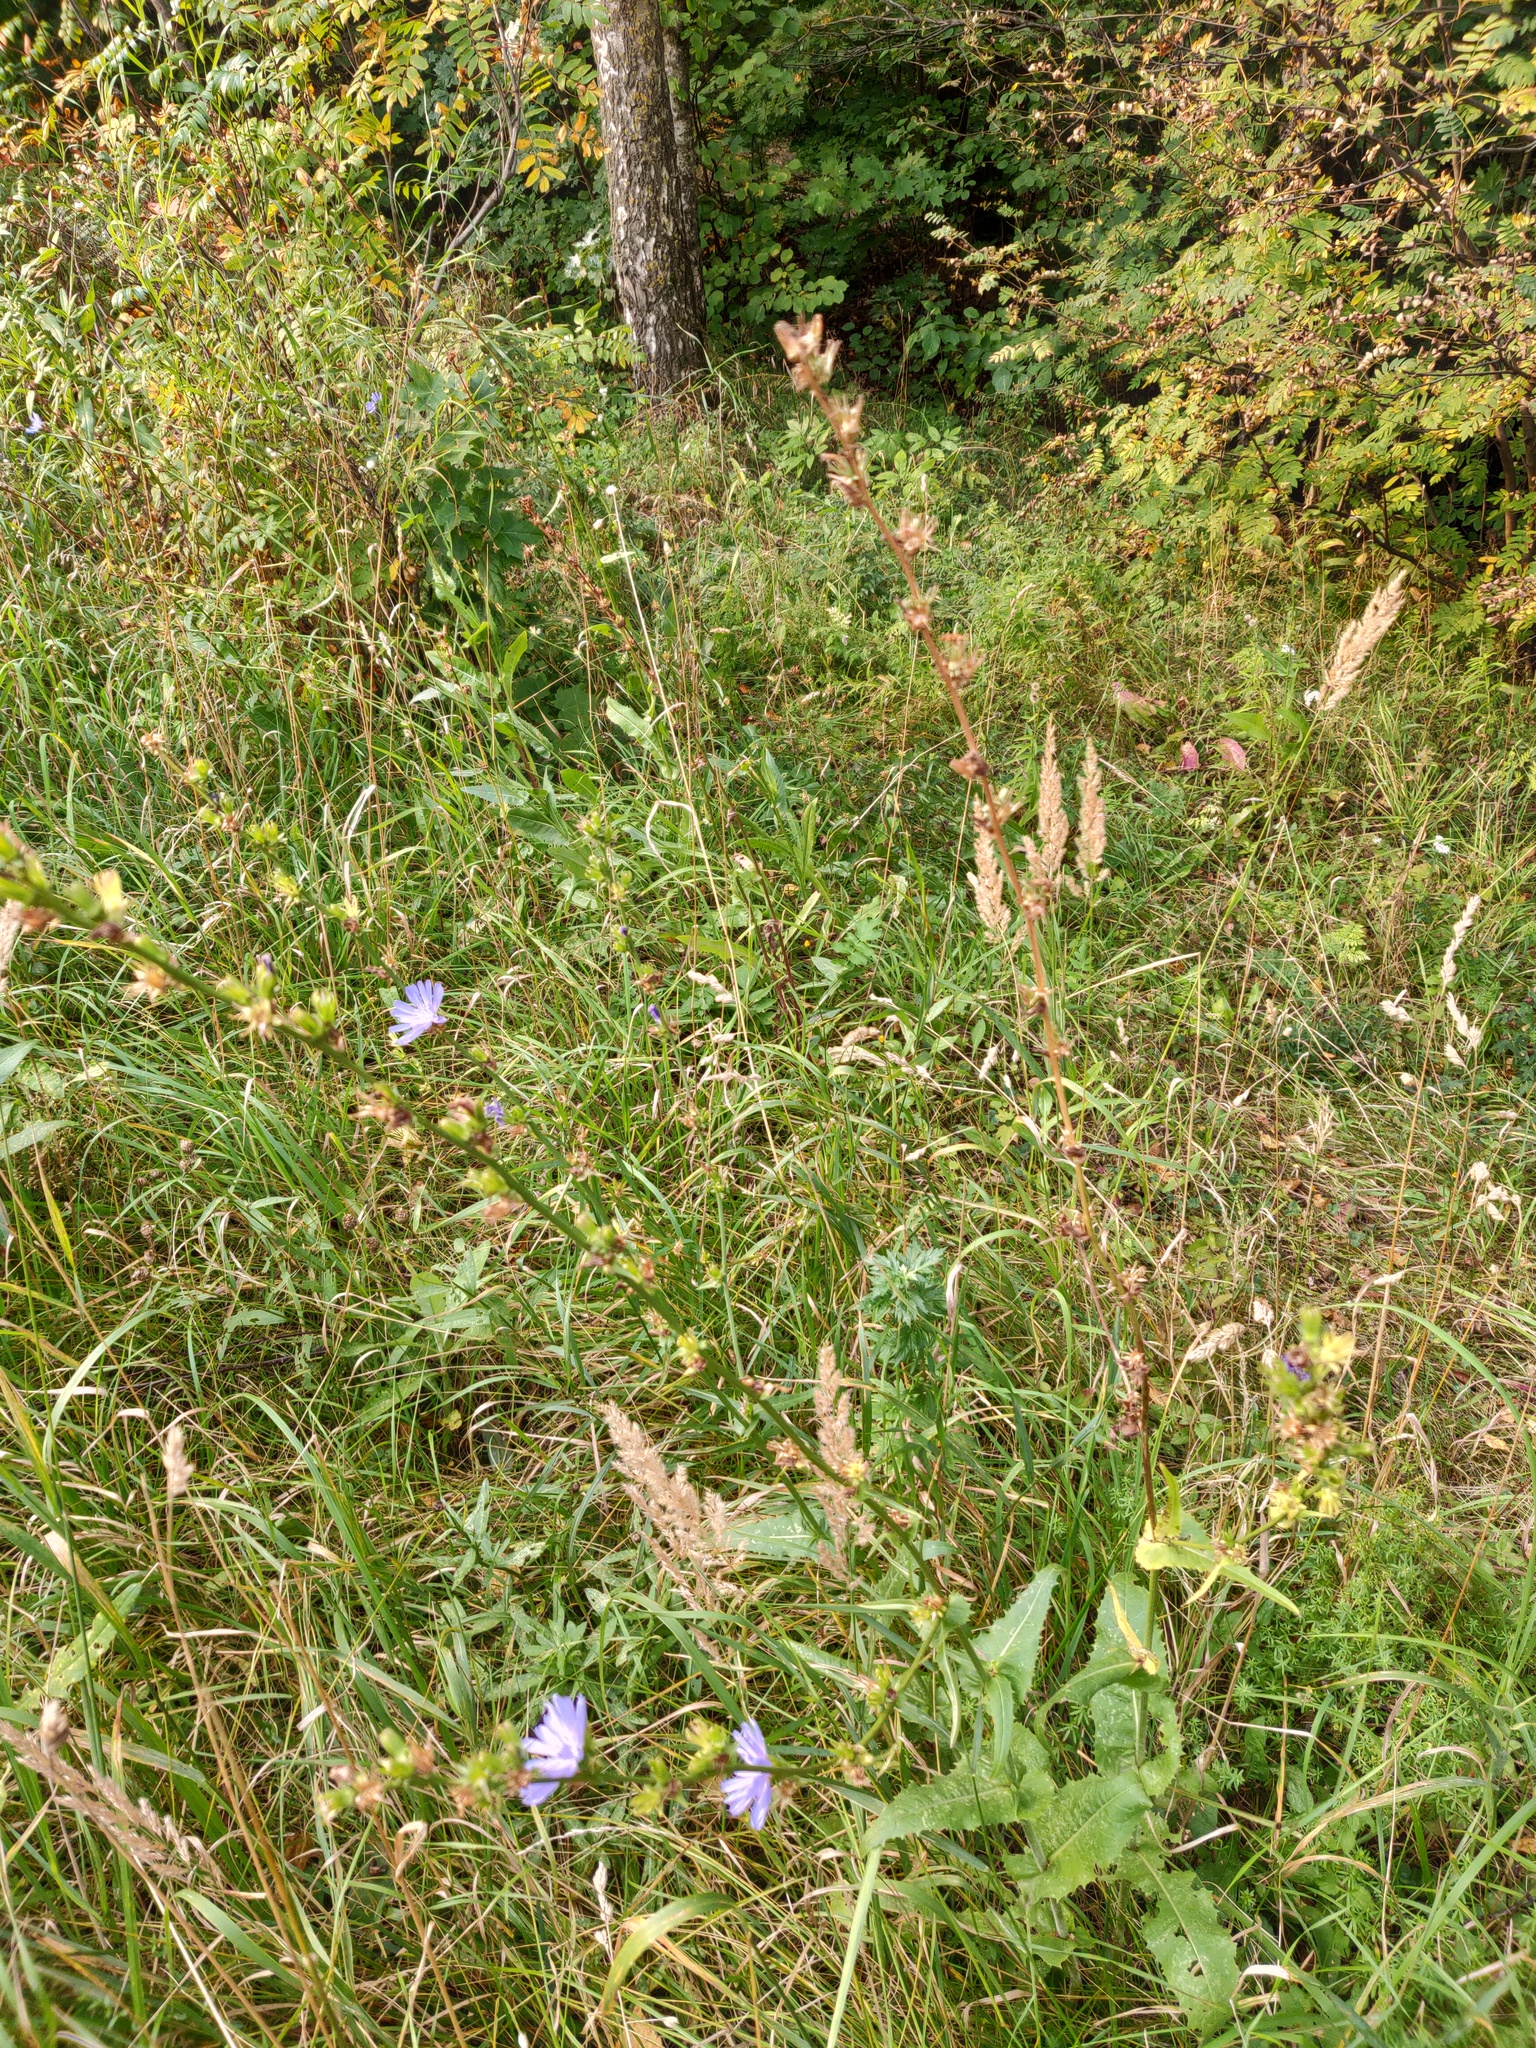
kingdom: Plantae
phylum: Tracheophyta
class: Magnoliopsida
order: Asterales
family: Asteraceae
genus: Cichorium
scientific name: Cichorium intybus
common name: Chicory
